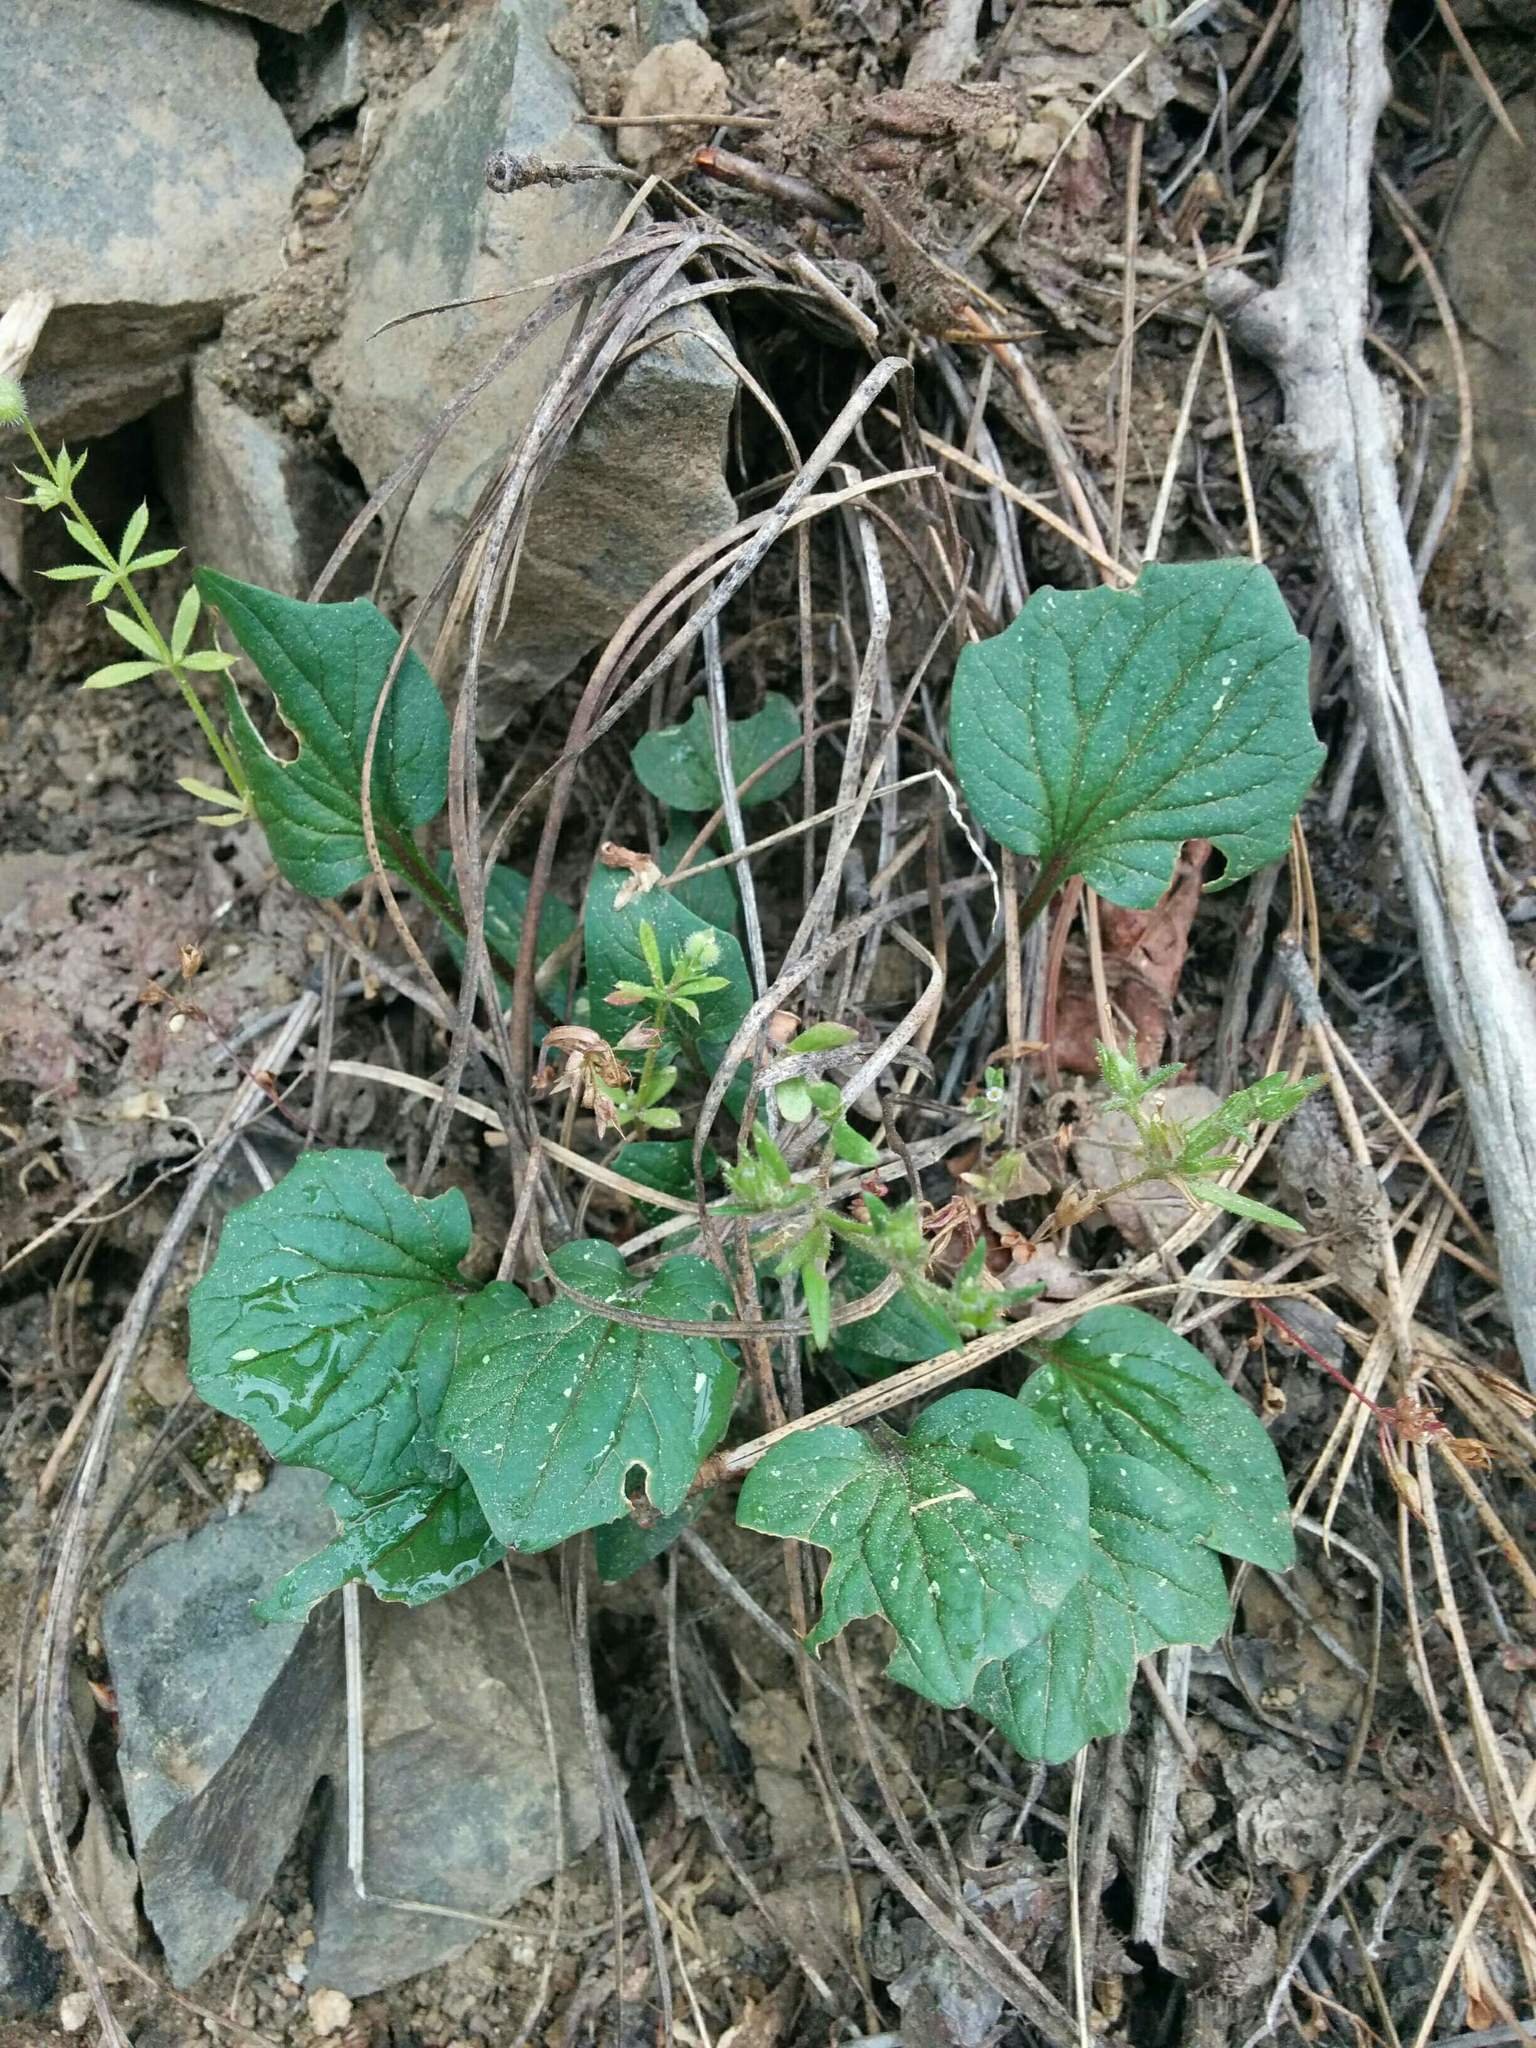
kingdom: Plantae
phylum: Tracheophyta
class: Magnoliopsida
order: Malpighiales
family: Violaceae
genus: Viola
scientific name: Viola purpurea
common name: Pine violet
